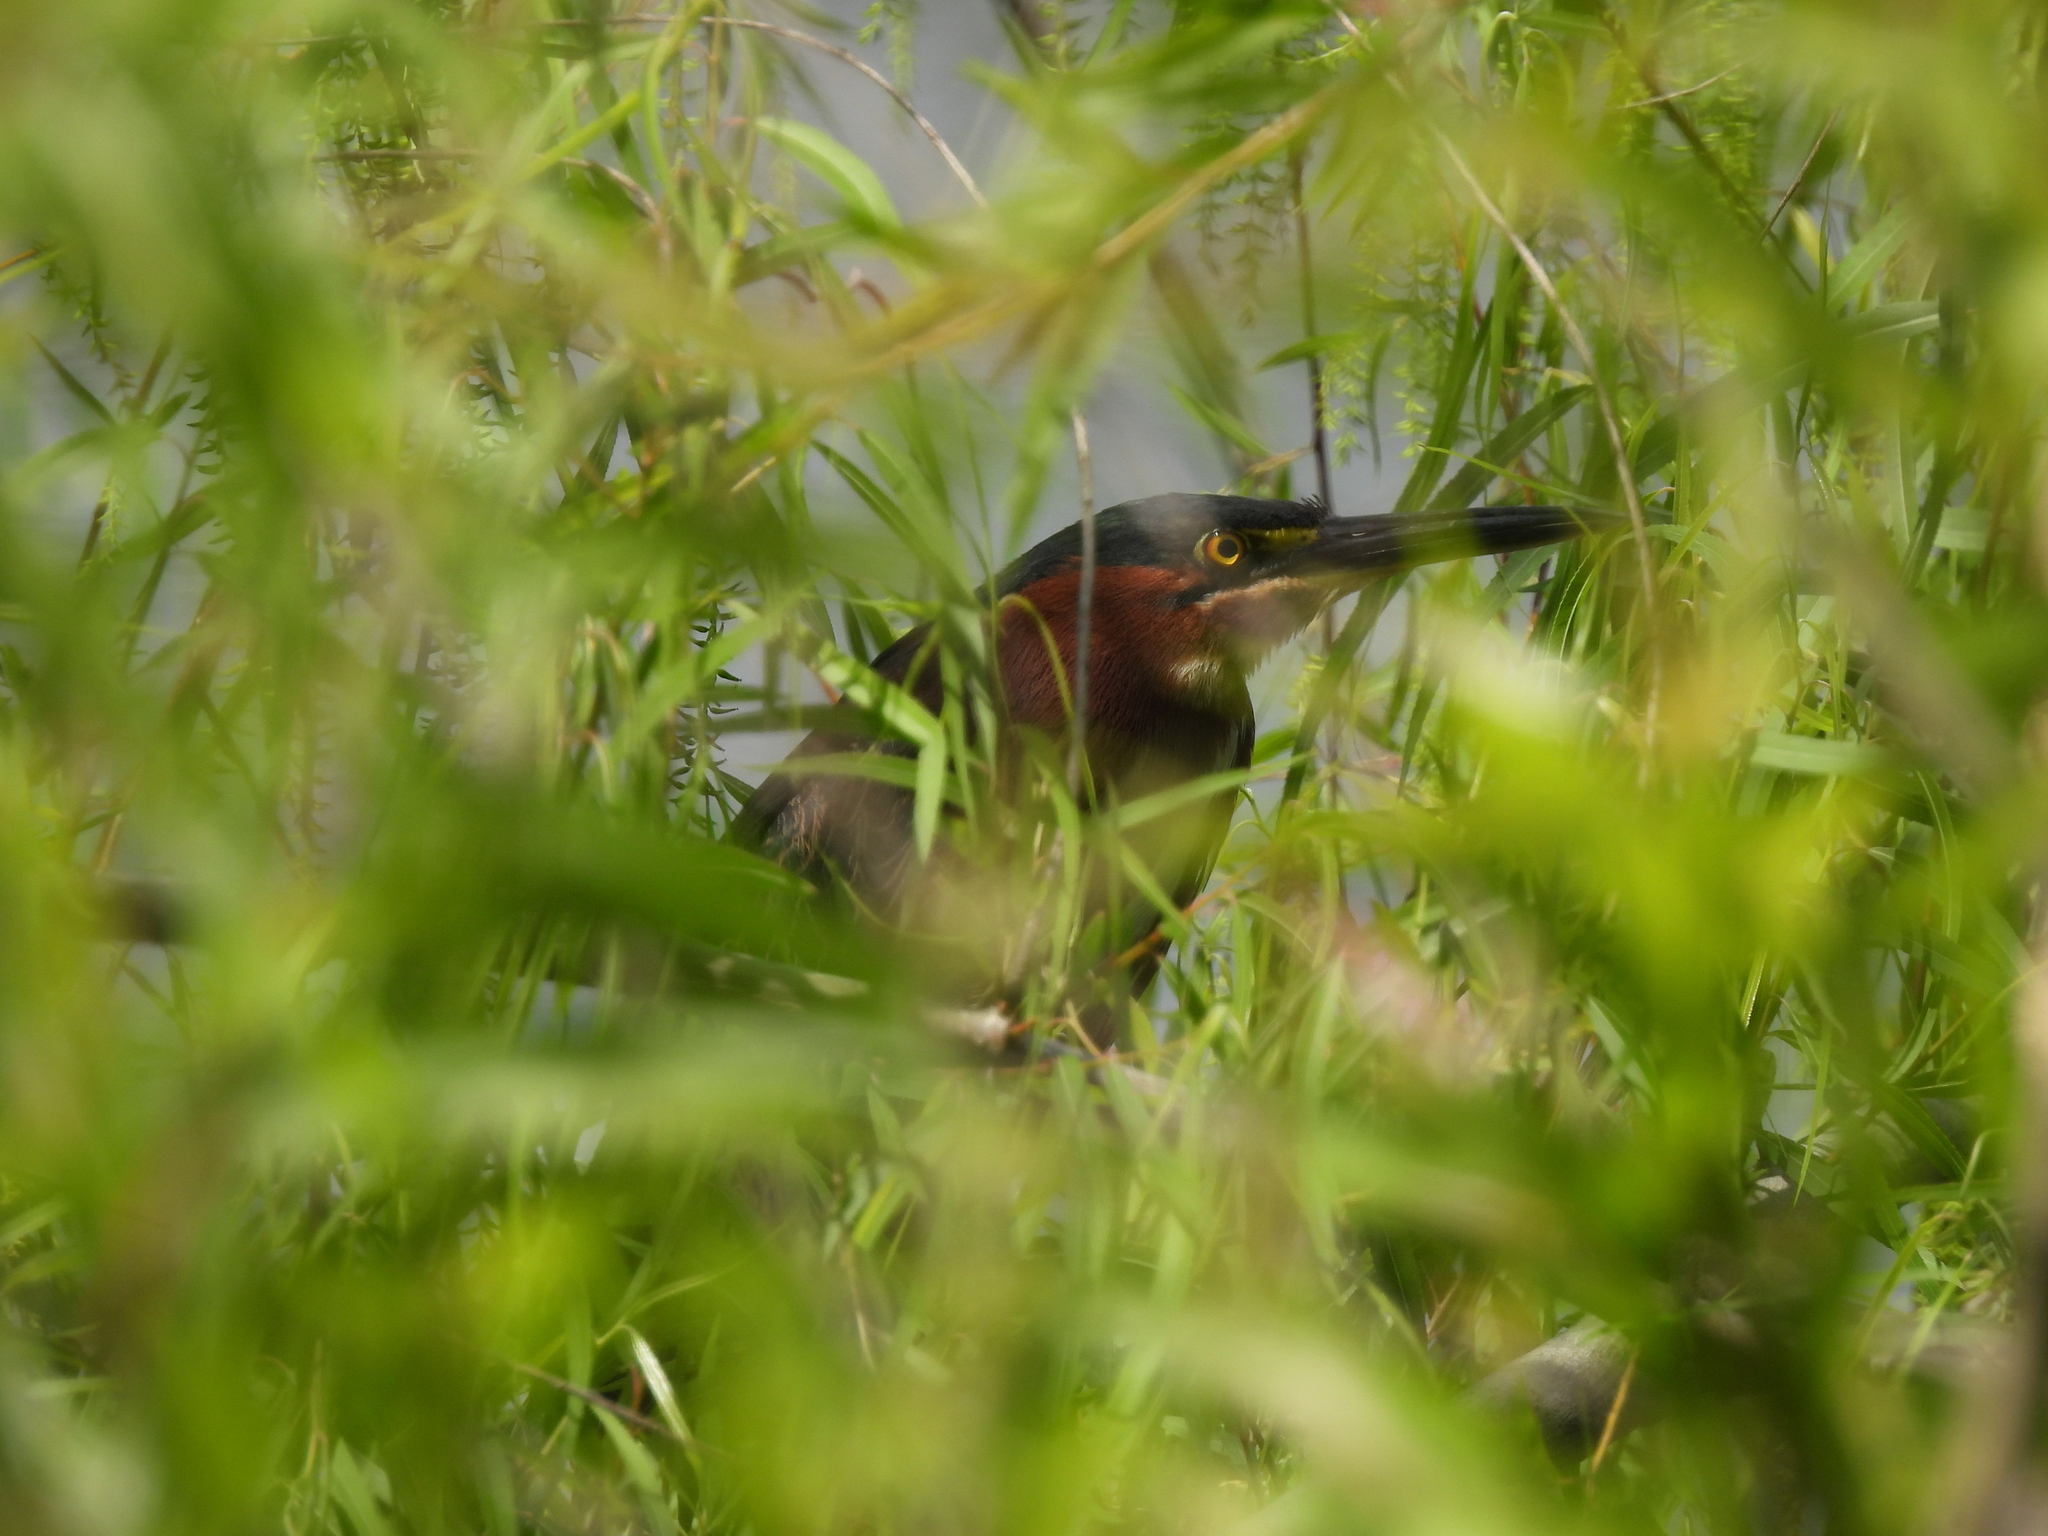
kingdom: Animalia
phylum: Chordata
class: Aves
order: Pelecaniformes
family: Ardeidae
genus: Butorides
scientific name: Butorides virescens
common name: Green heron
